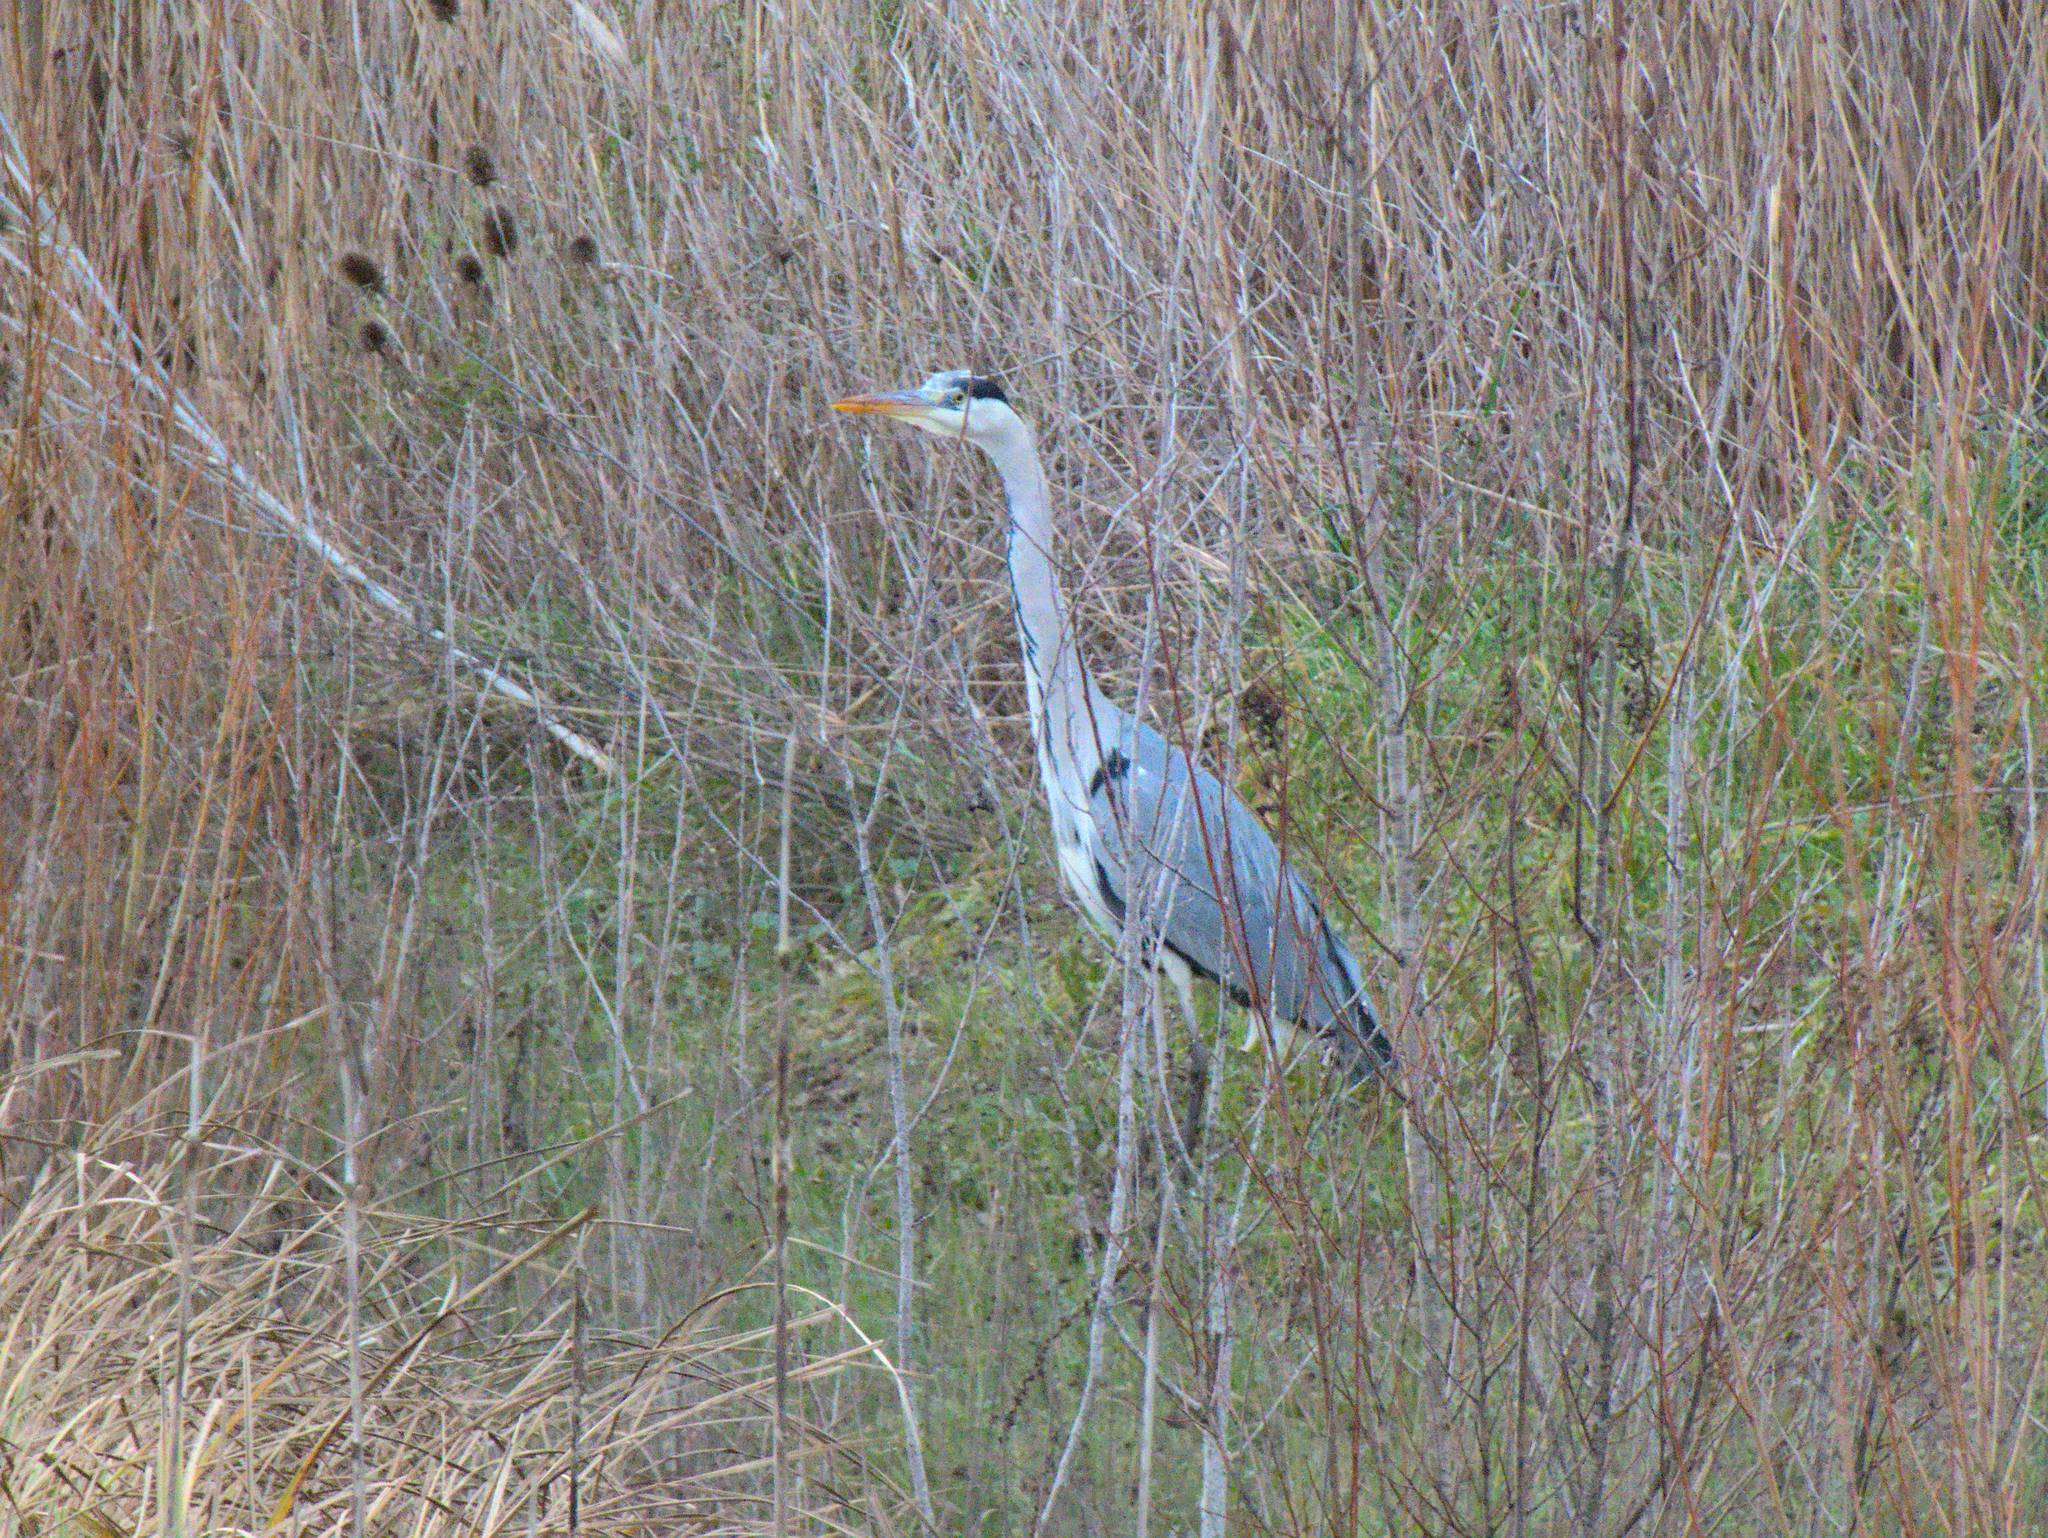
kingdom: Animalia
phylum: Chordata
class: Aves
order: Pelecaniformes
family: Ardeidae
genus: Ardea
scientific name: Ardea cinerea
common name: Grey heron
